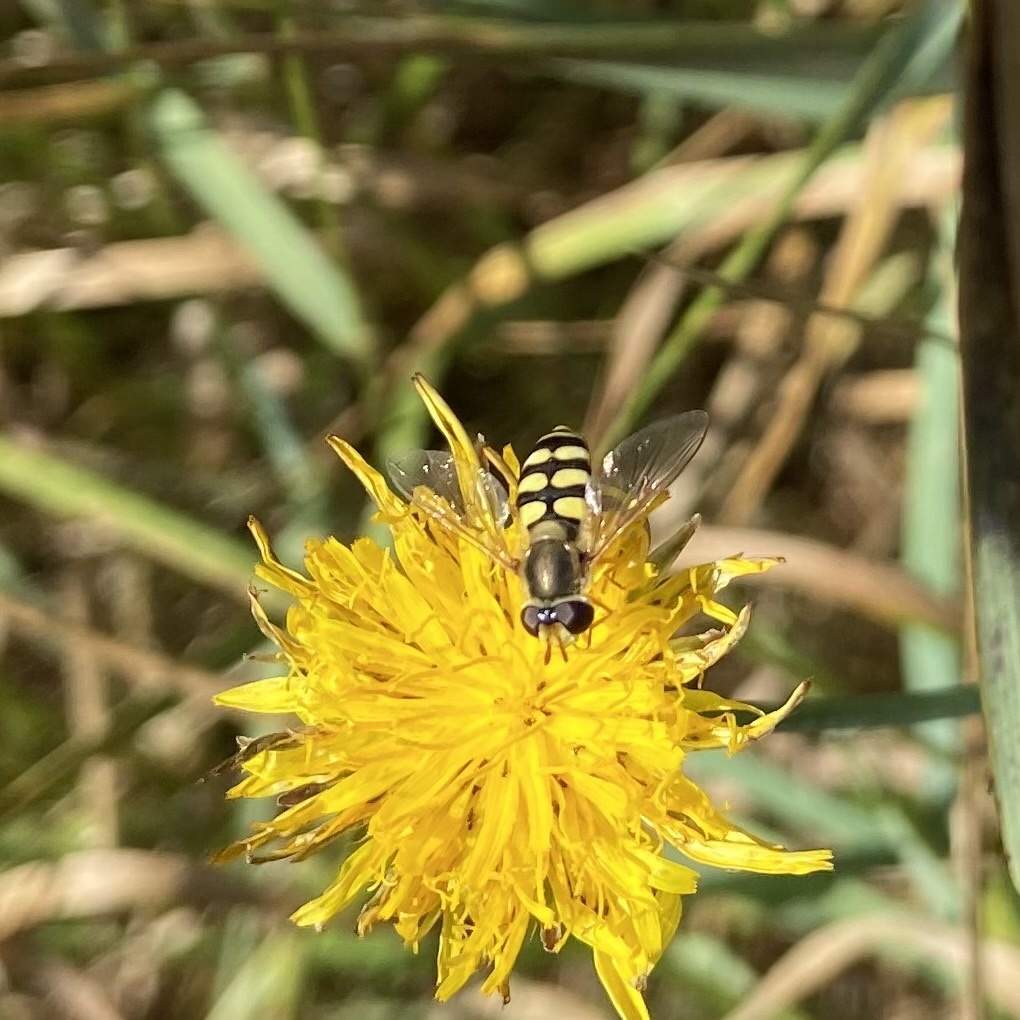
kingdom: Animalia
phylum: Arthropoda
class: Insecta
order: Diptera
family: Syrphidae
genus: Eupeodes
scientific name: Eupeodes corollae
